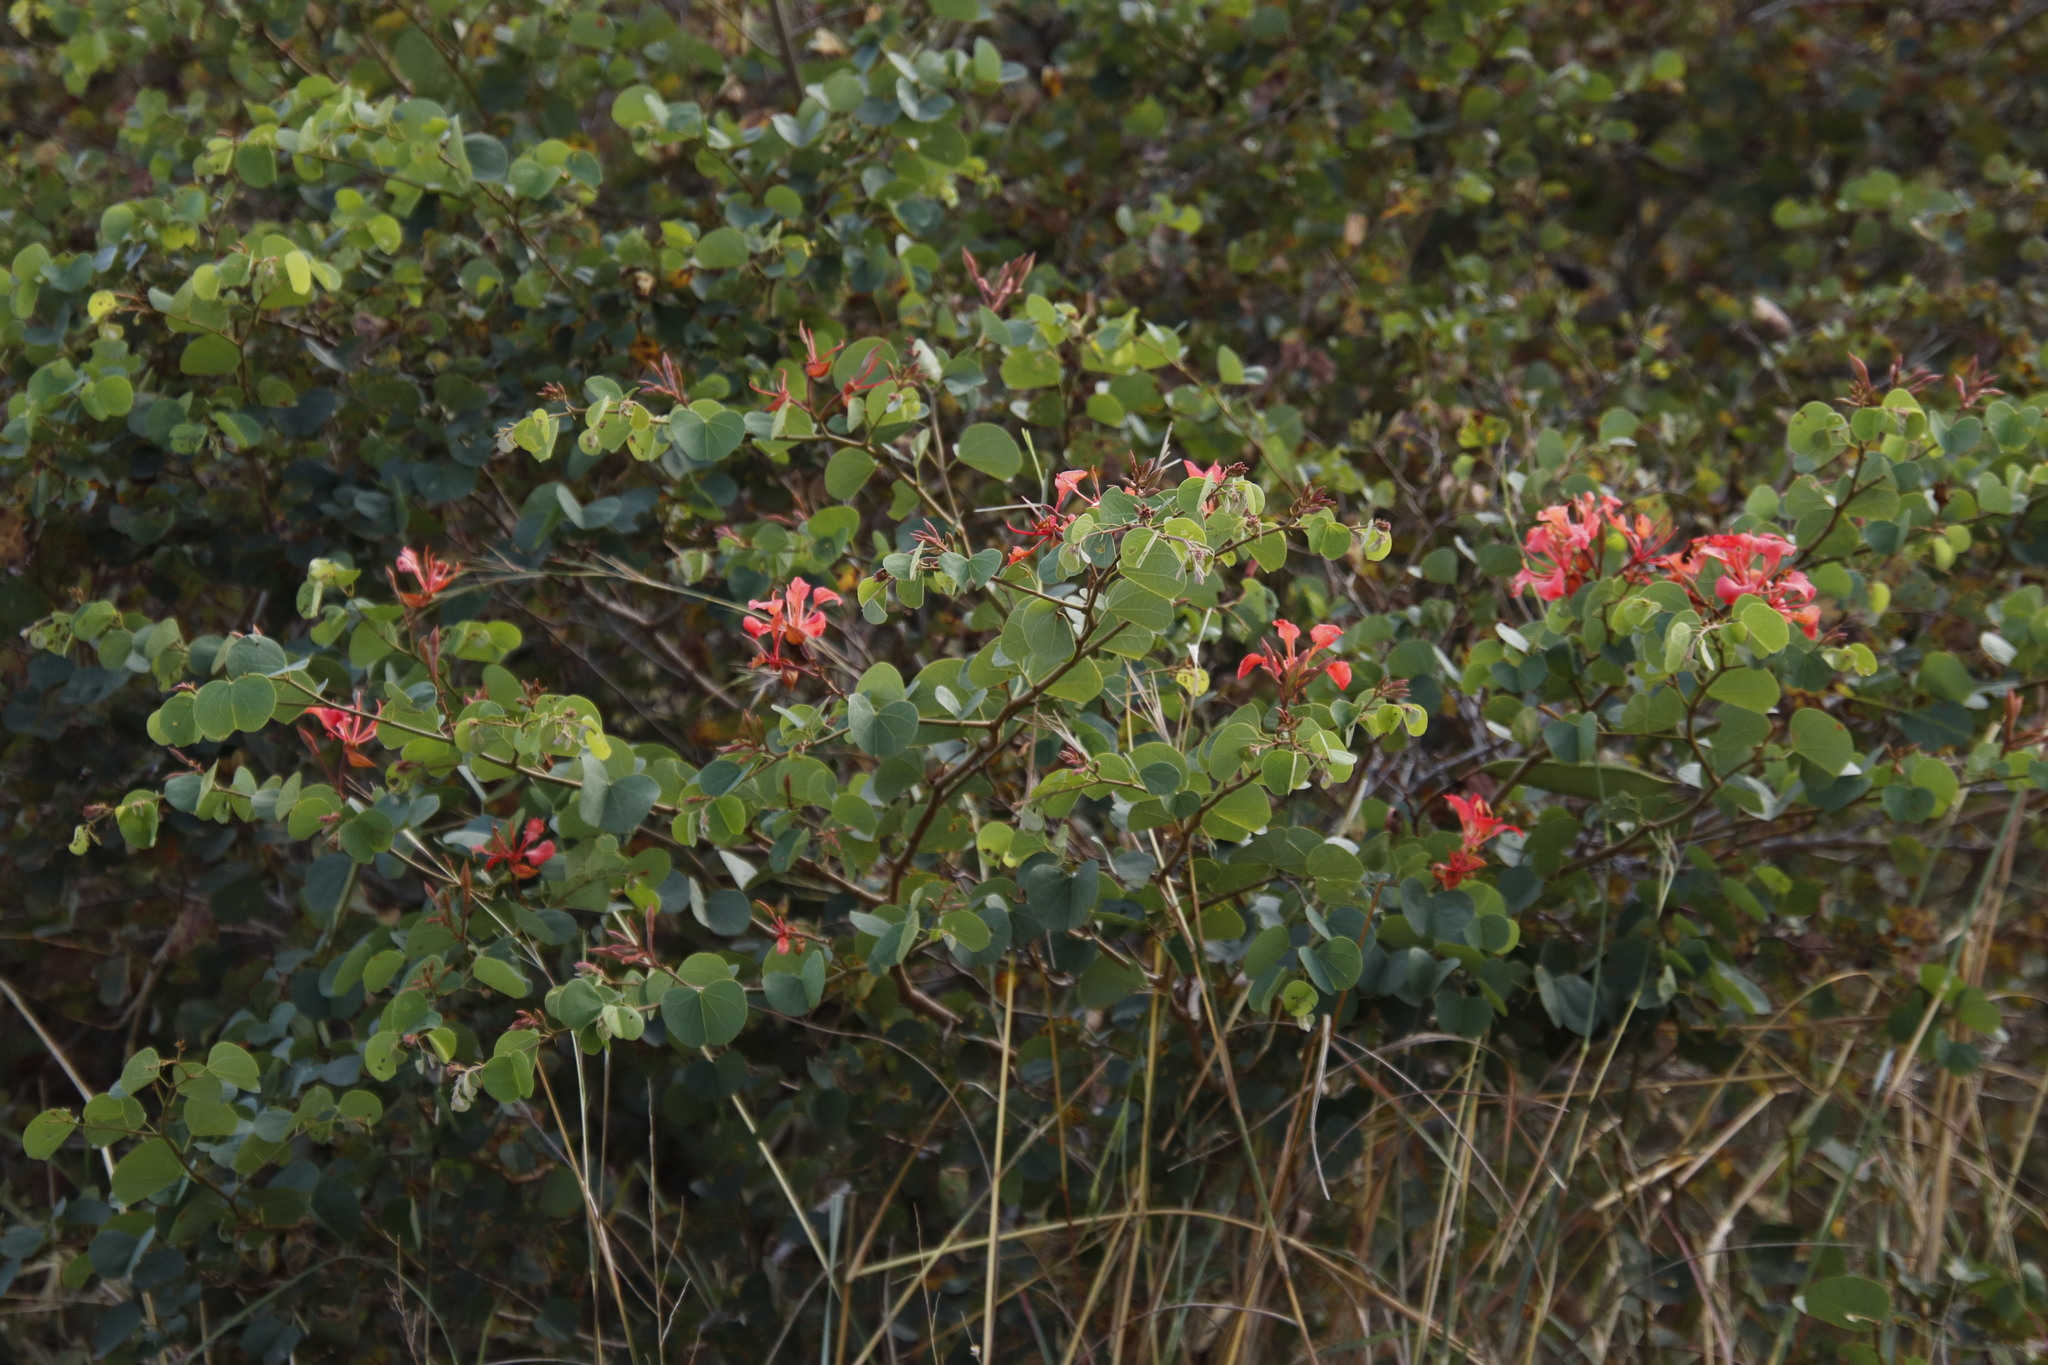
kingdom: Plantae
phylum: Tracheophyta
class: Magnoliopsida
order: Fabales
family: Fabaceae
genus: Bauhinia
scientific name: Bauhinia galpinii
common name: African plume
